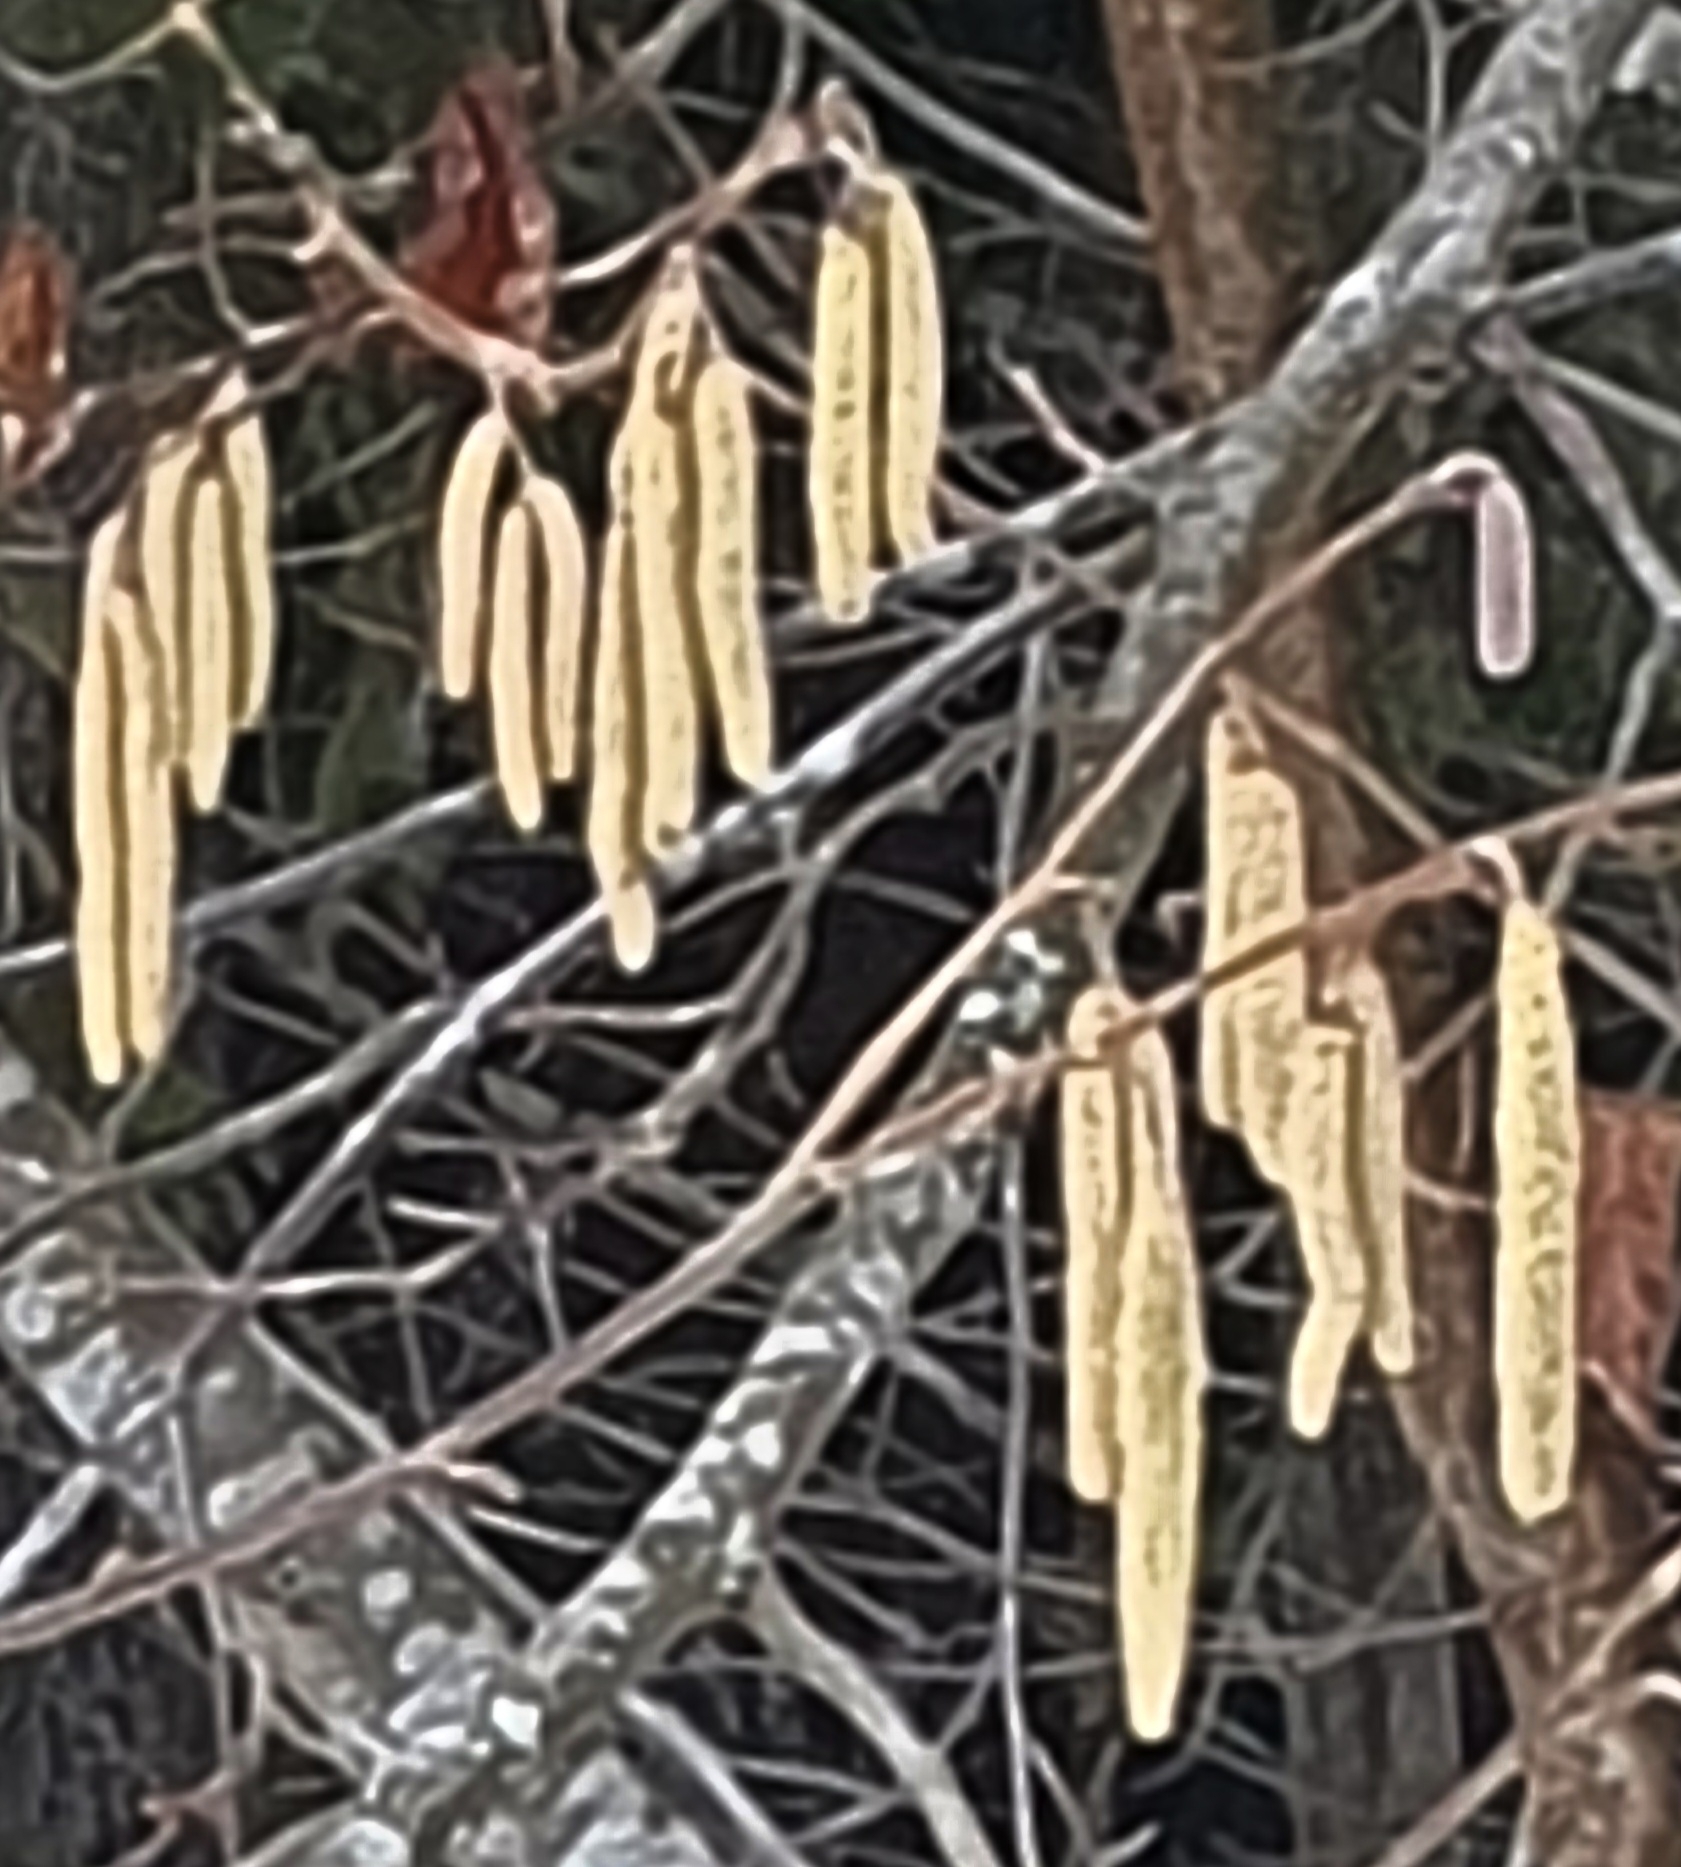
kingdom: Plantae
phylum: Tracheophyta
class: Magnoliopsida
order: Fagales
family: Betulaceae
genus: Corylus
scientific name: Corylus avellana
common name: European hazel
